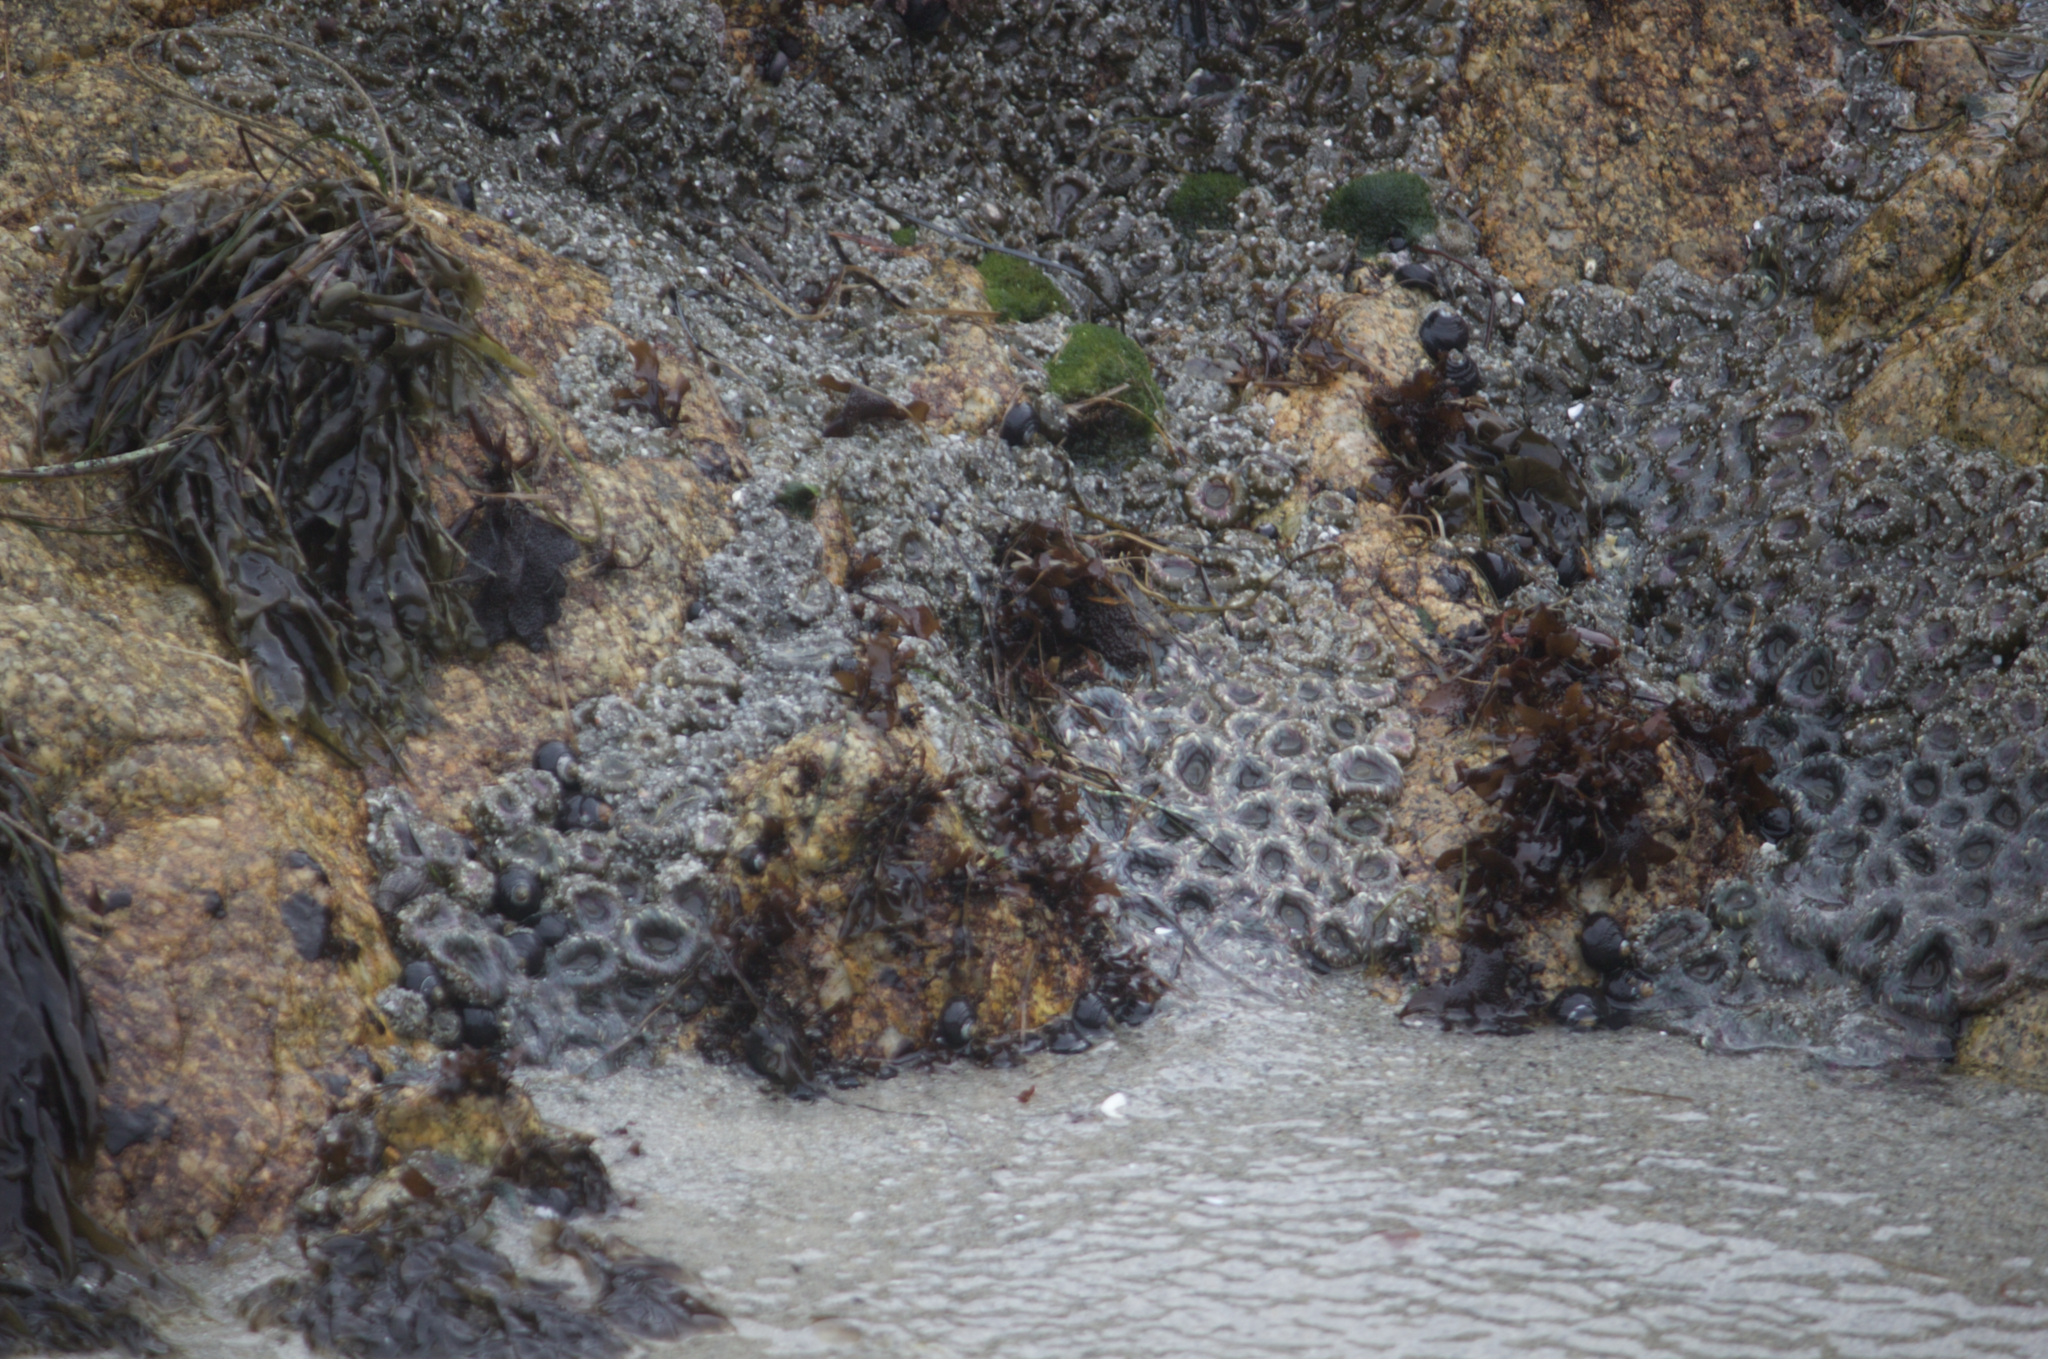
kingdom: Animalia
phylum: Cnidaria
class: Anthozoa
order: Actiniaria
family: Actiniidae
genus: Anthopleura
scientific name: Anthopleura elegantissima
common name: Clonal anemone
